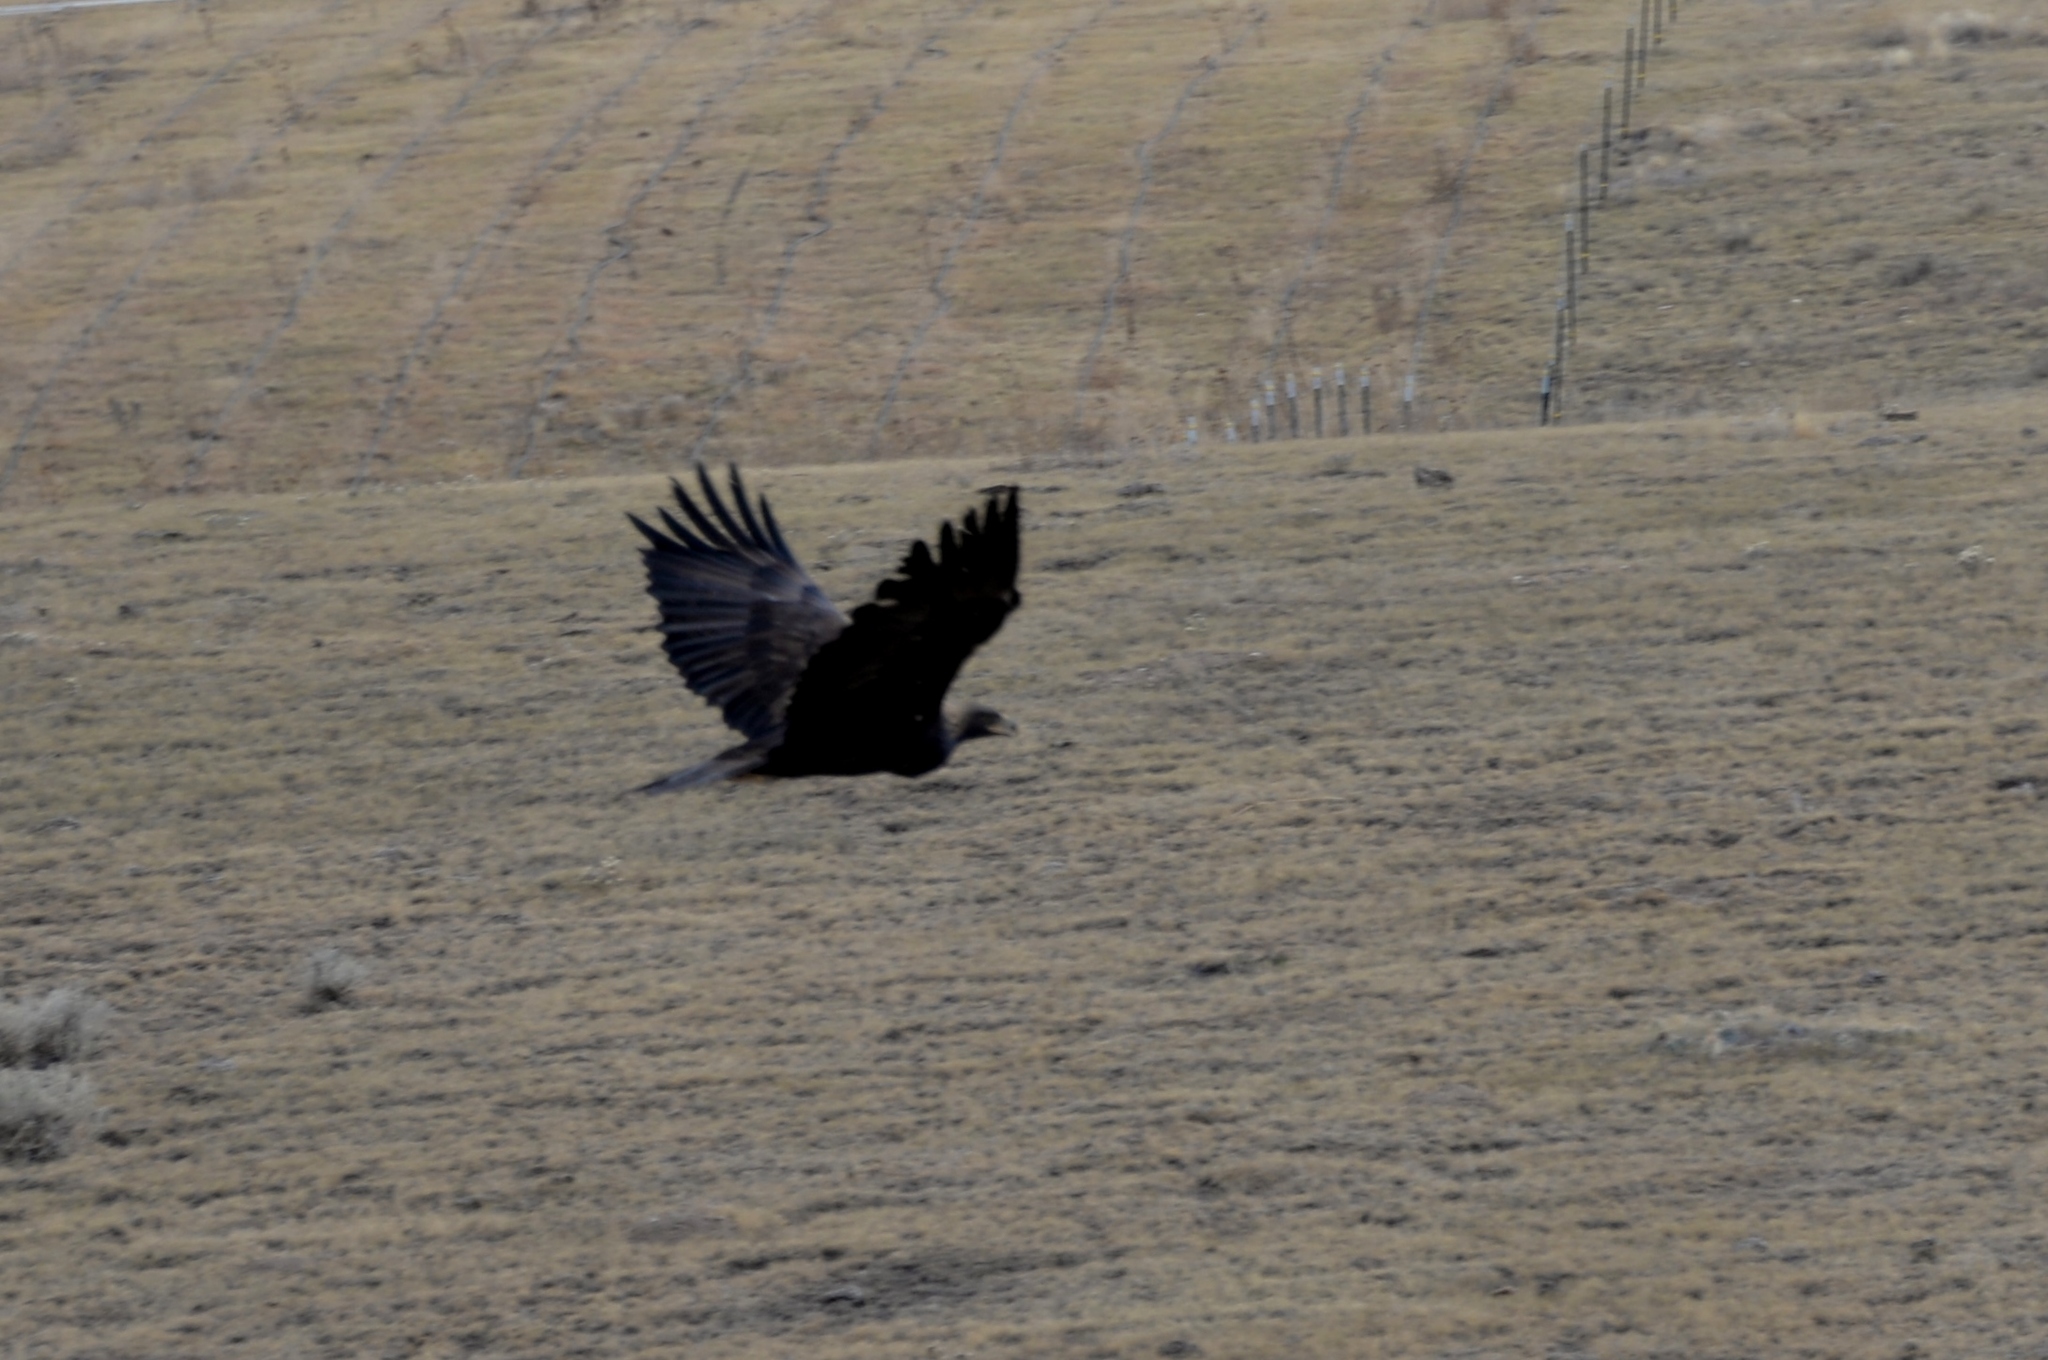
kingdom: Animalia
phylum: Chordata
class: Aves
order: Accipitriformes
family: Accipitridae
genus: Aquila
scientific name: Aquila chrysaetos
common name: Golden eagle
